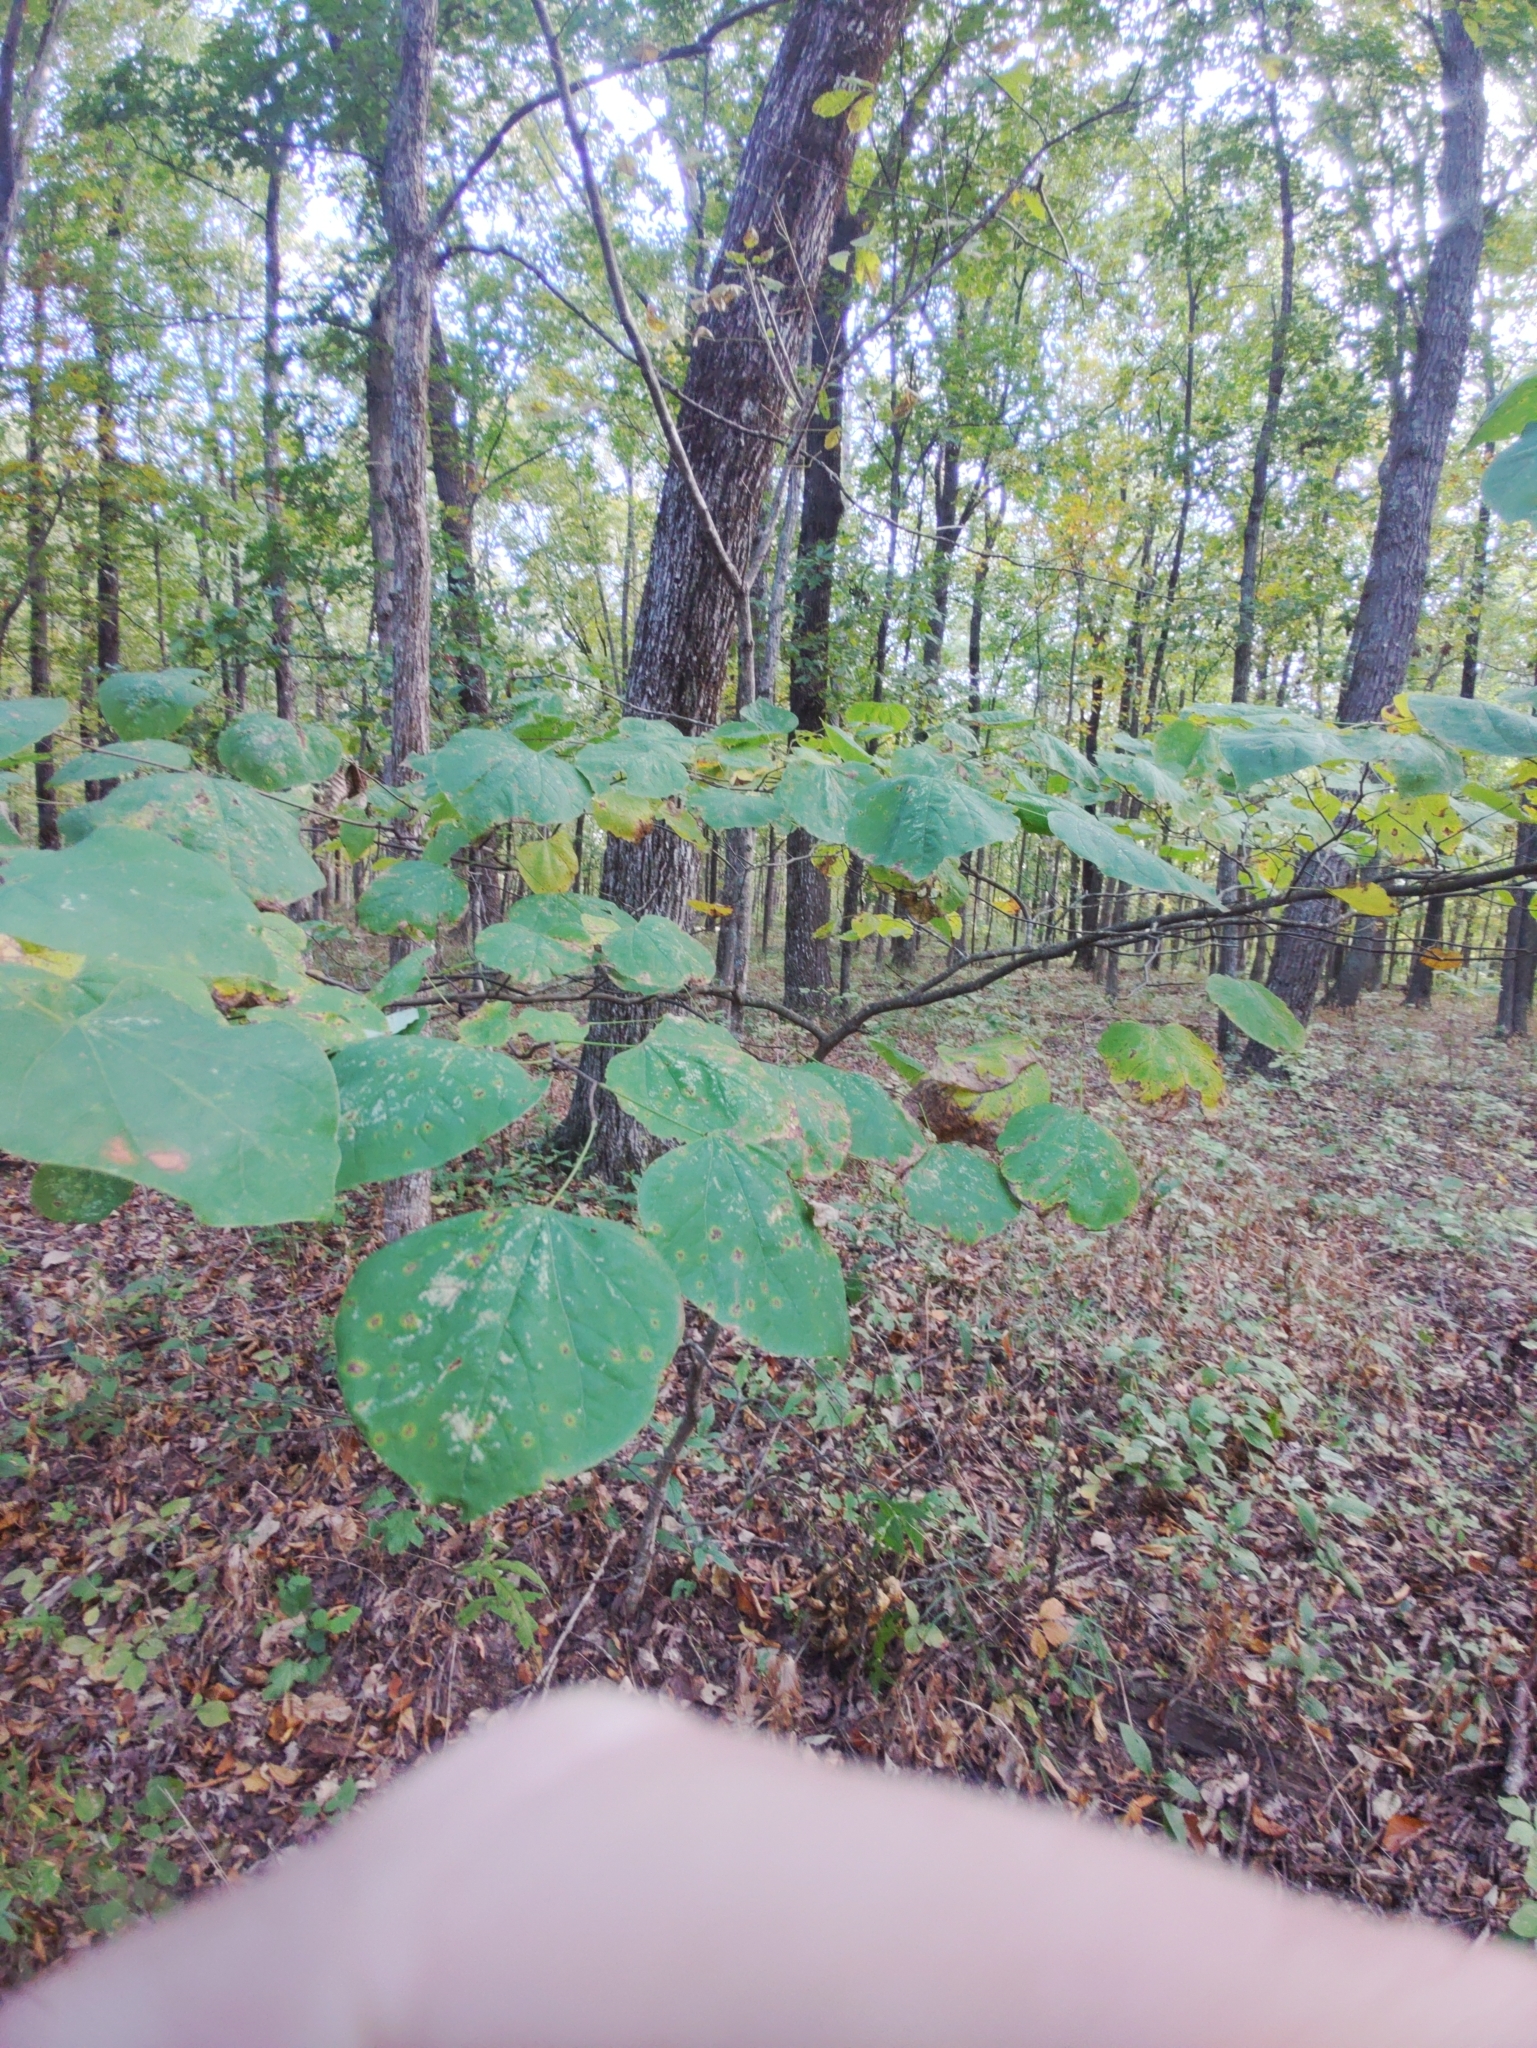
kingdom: Plantae
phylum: Tracheophyta
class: Magnoliopsida
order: Fabales
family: Fabaceae
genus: Cercis
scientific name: Cercis canadensis
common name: Eastern redbud
